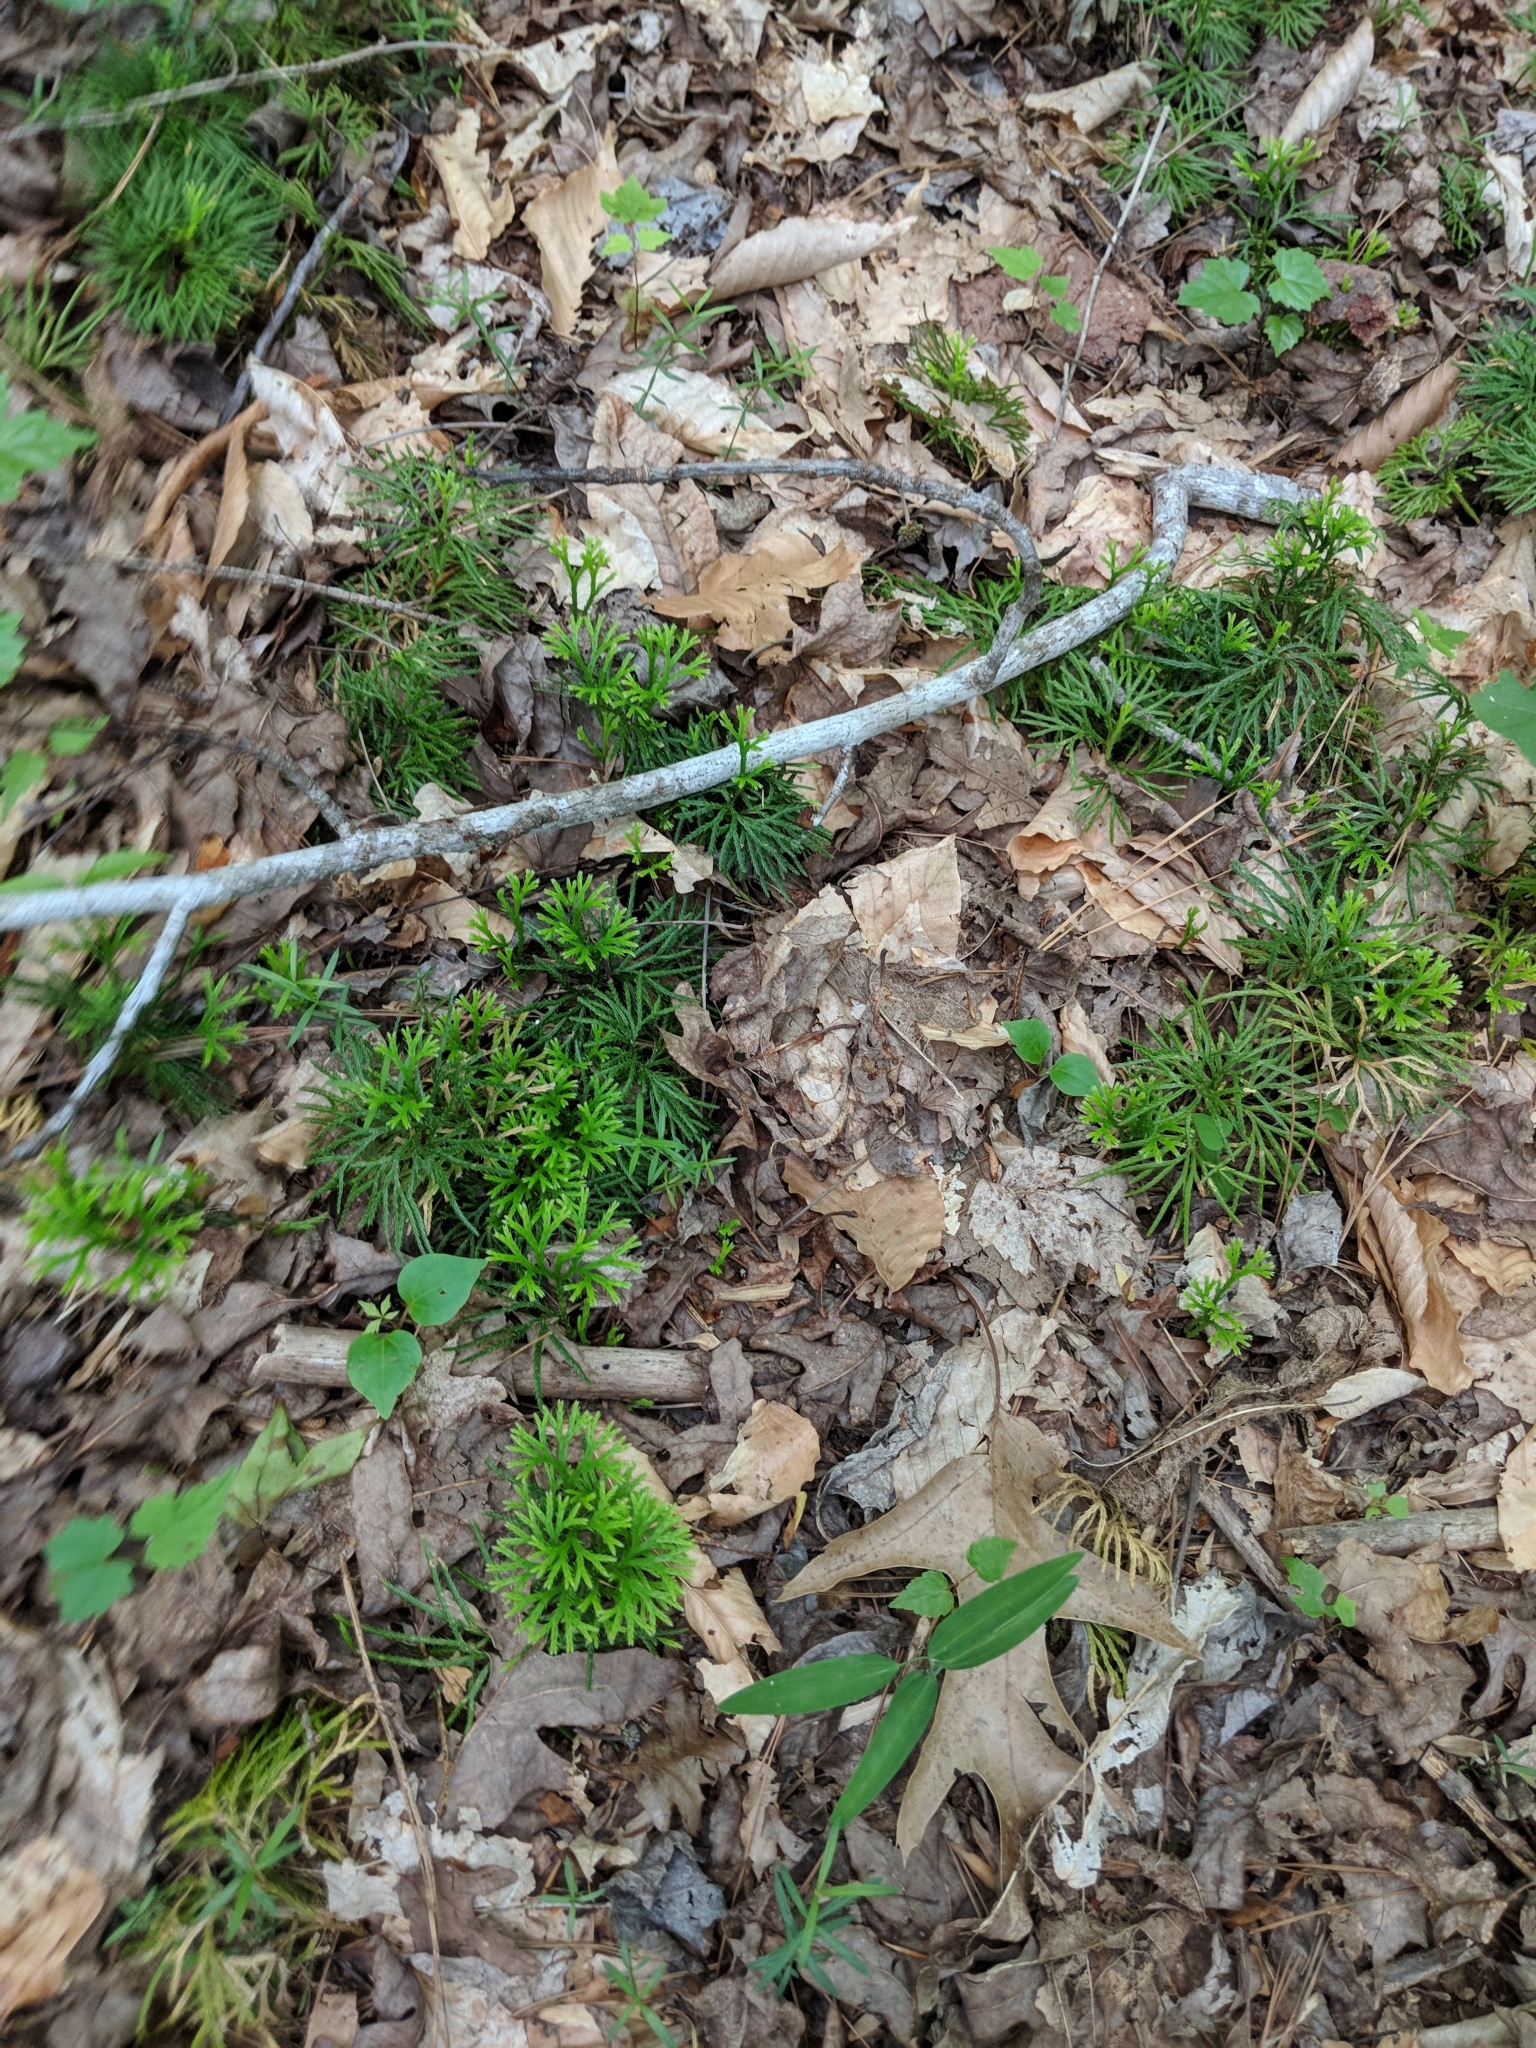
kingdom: Plantae
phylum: Tracheophyta
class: Lycopodiopsida
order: Lycopodiales
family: Lycopodiaceae
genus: Diphasiastrum
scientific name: Diphasiastrum digitatum
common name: Southern running-pine
